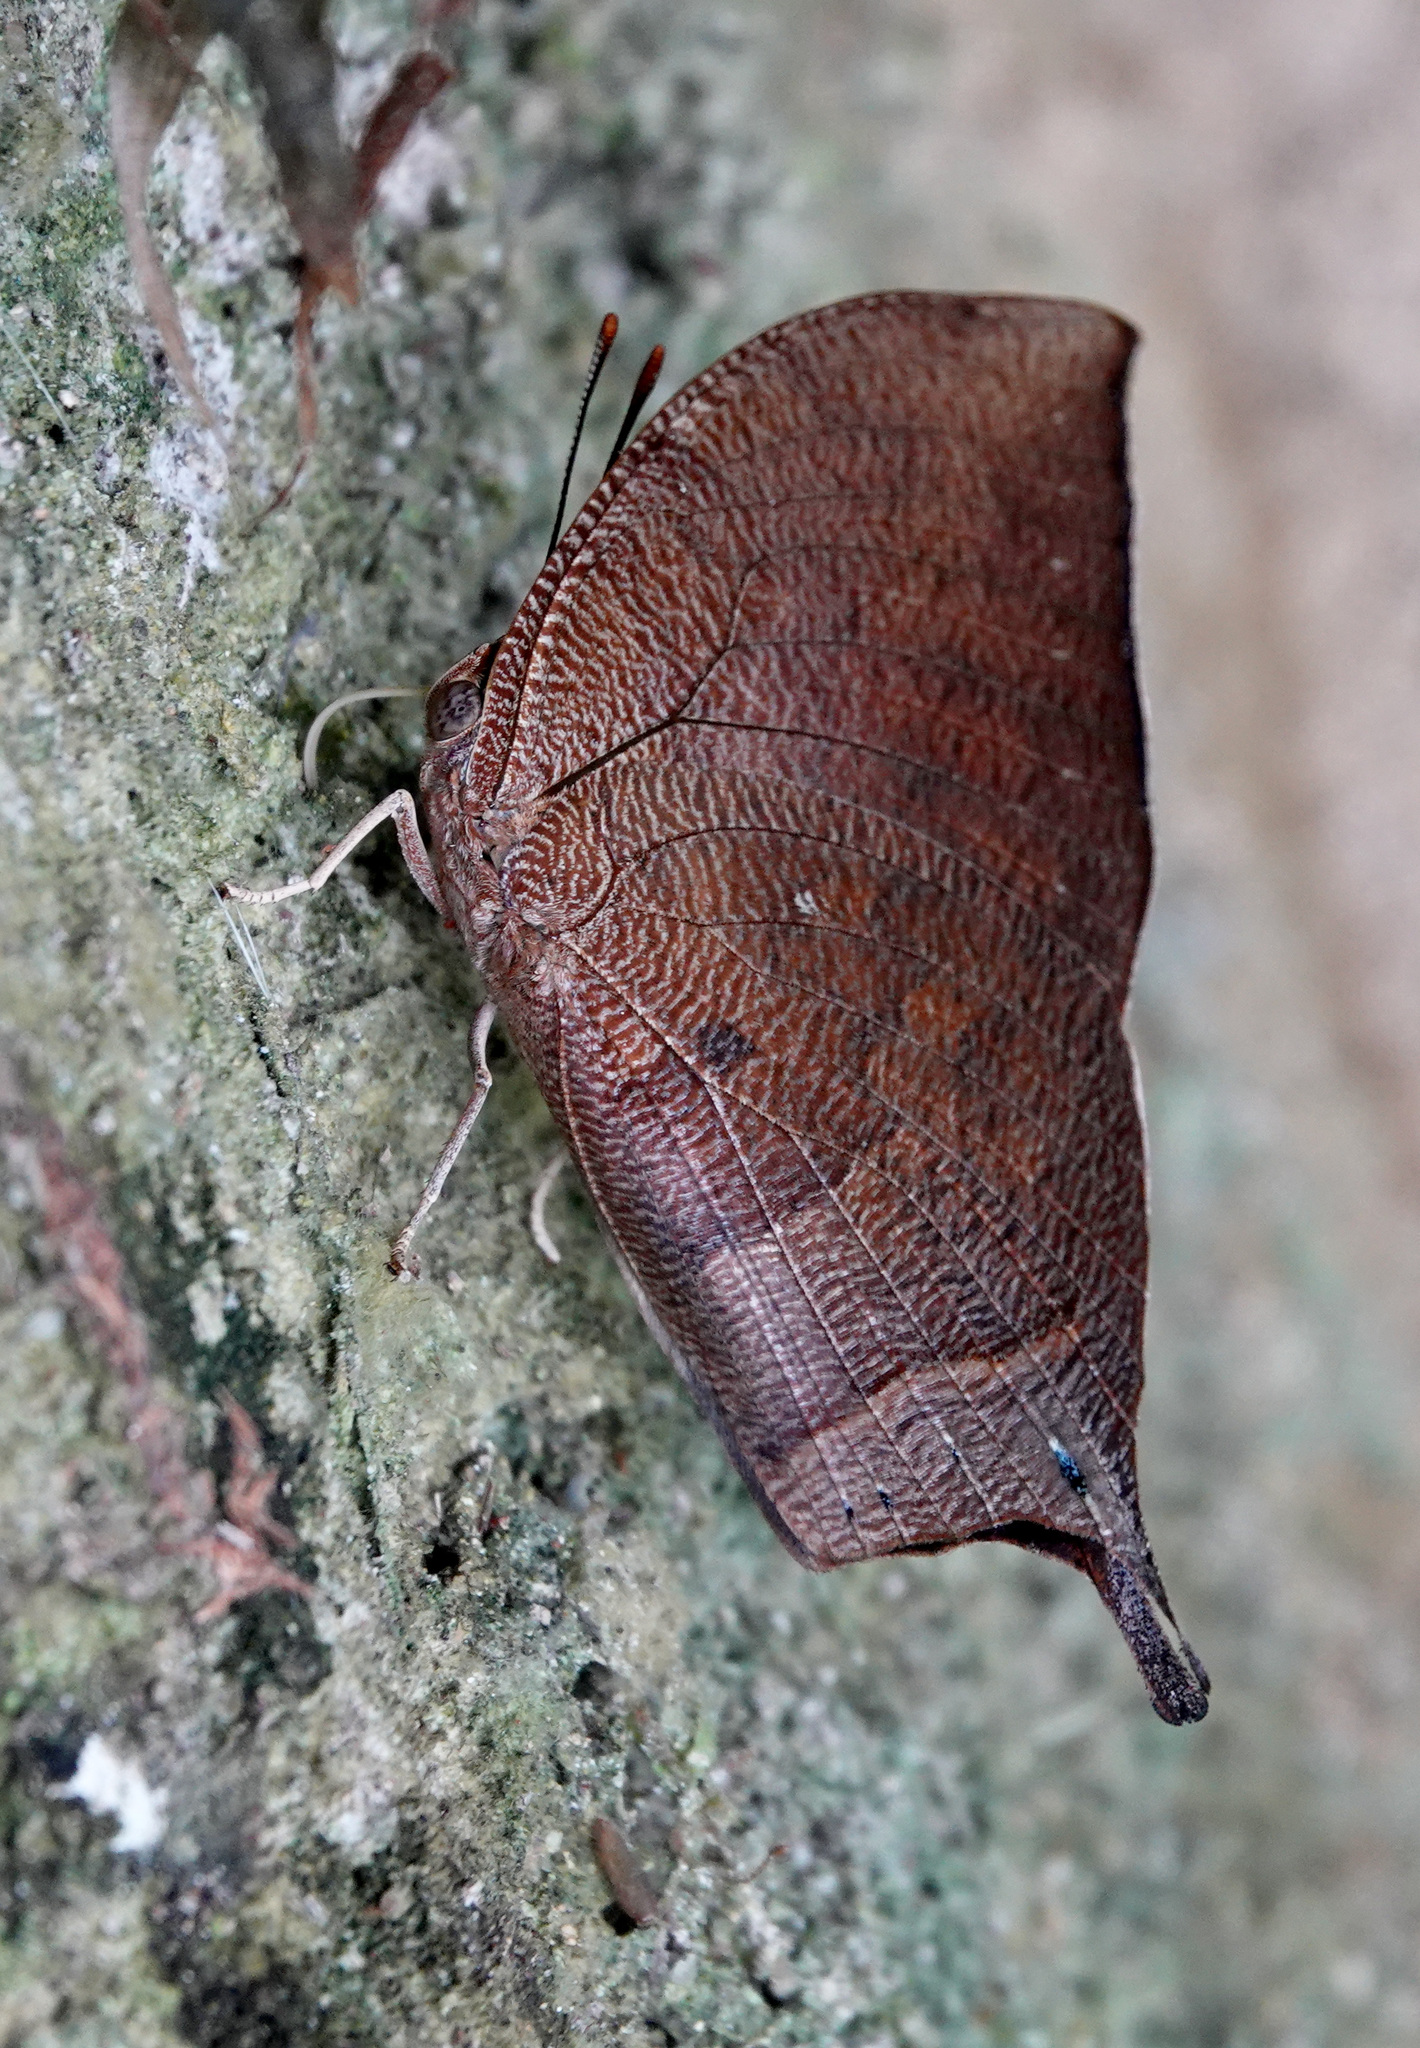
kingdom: Animalia
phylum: Arthropoda
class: Insecta
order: Lepidoptera
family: Nymphalidae
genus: Fountainea
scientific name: Fountainea
